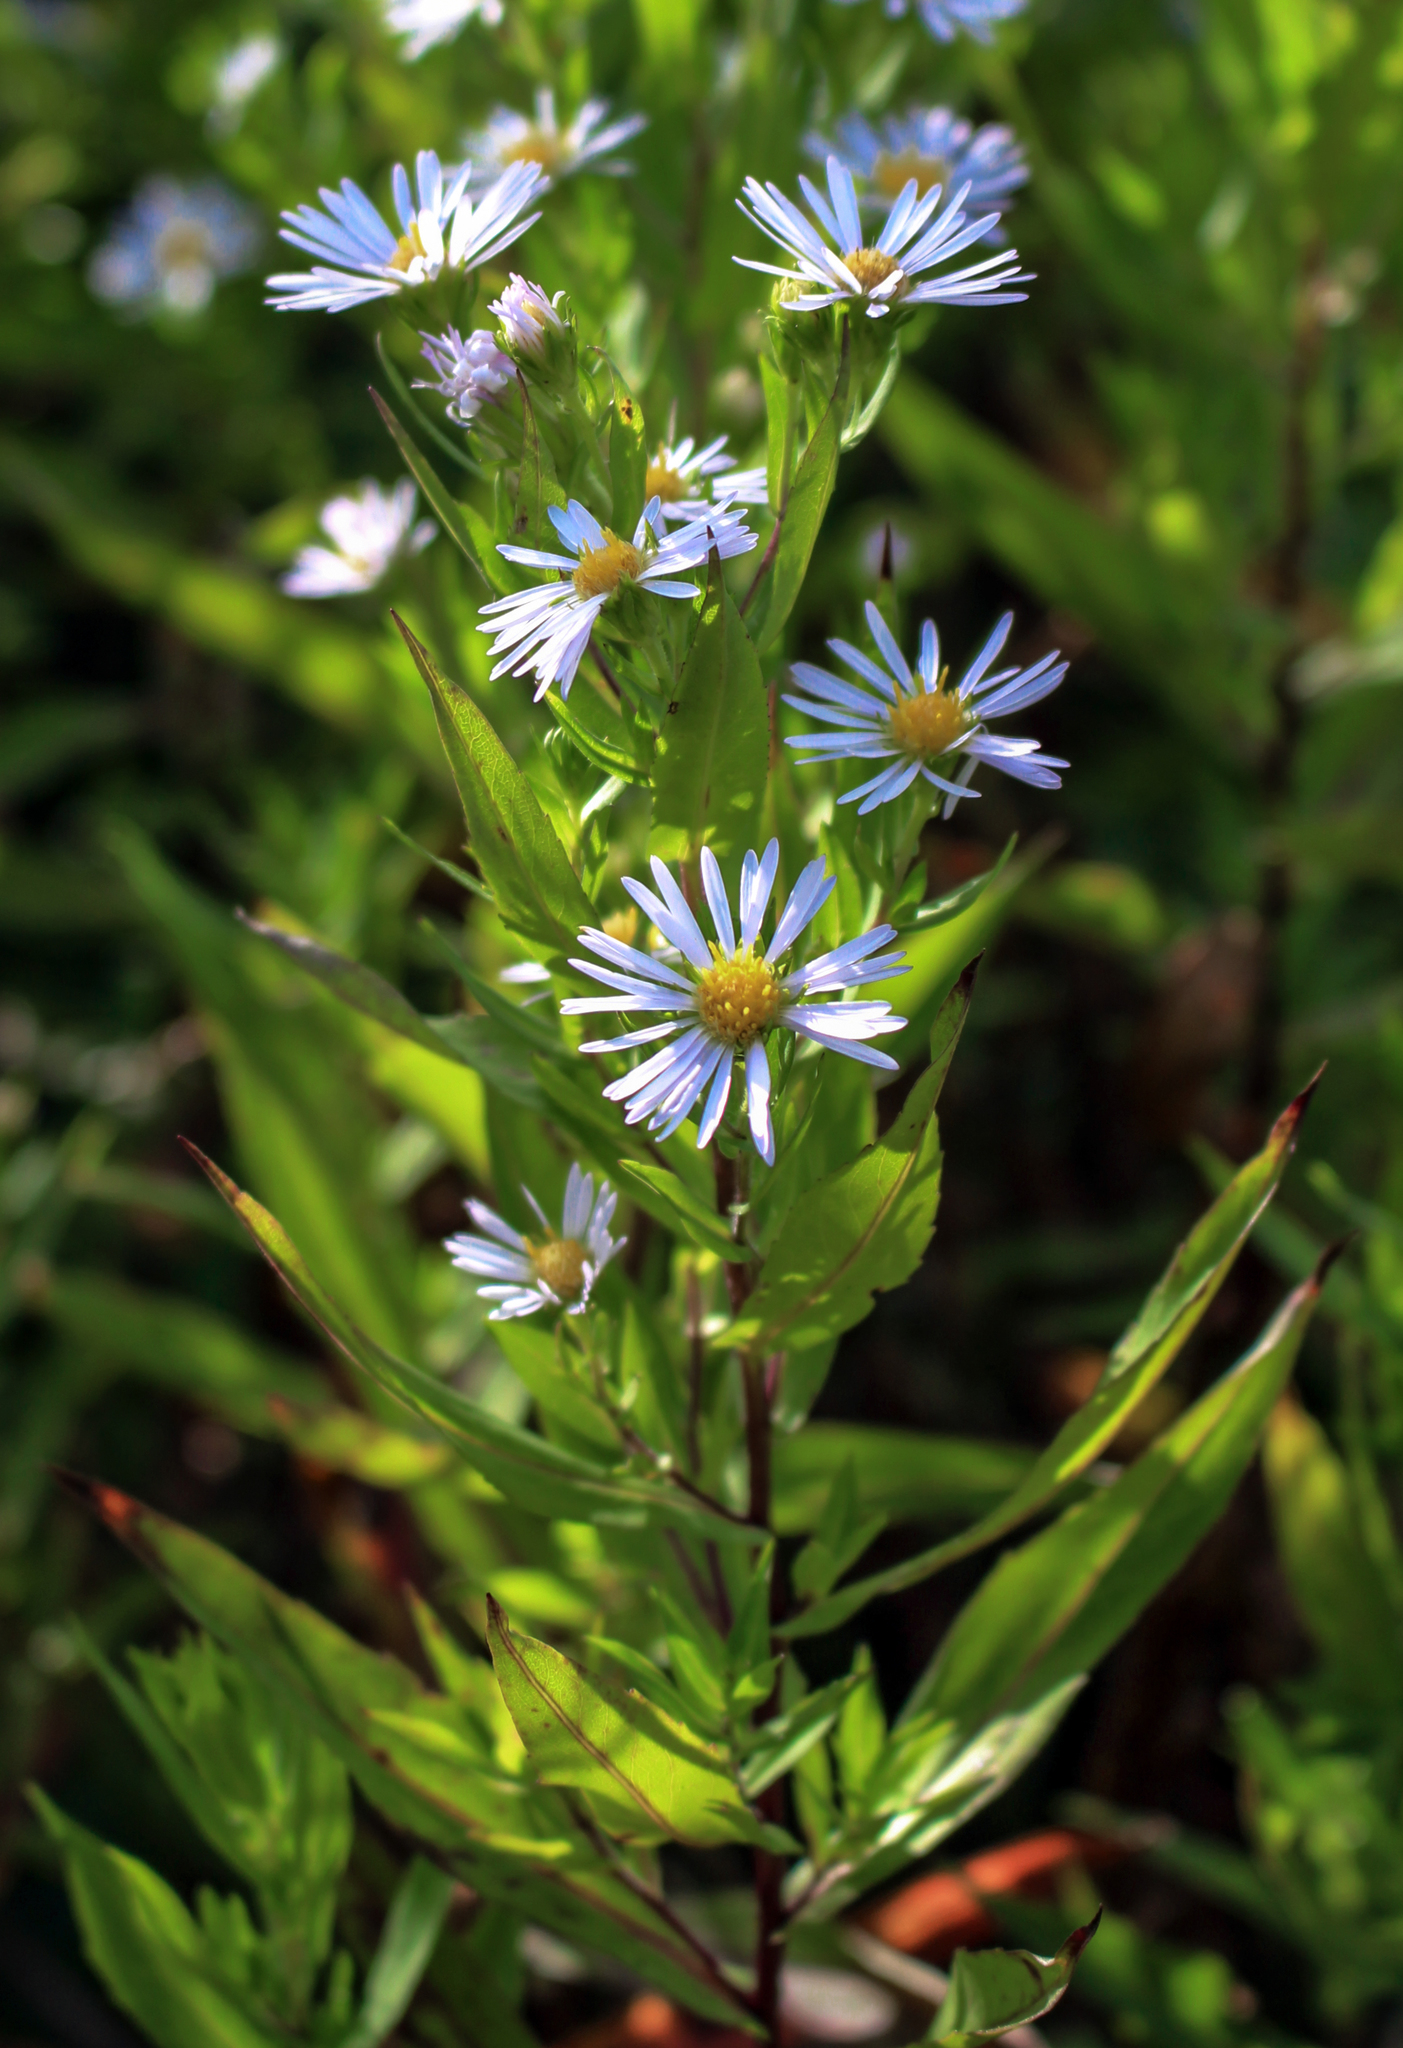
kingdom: Plantae
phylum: Tracheophyta
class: Magnoliopsida
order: Asterales
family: Asteraceae
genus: Symphyotrichum
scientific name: Symphyotrichum firmum
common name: Shining aster
